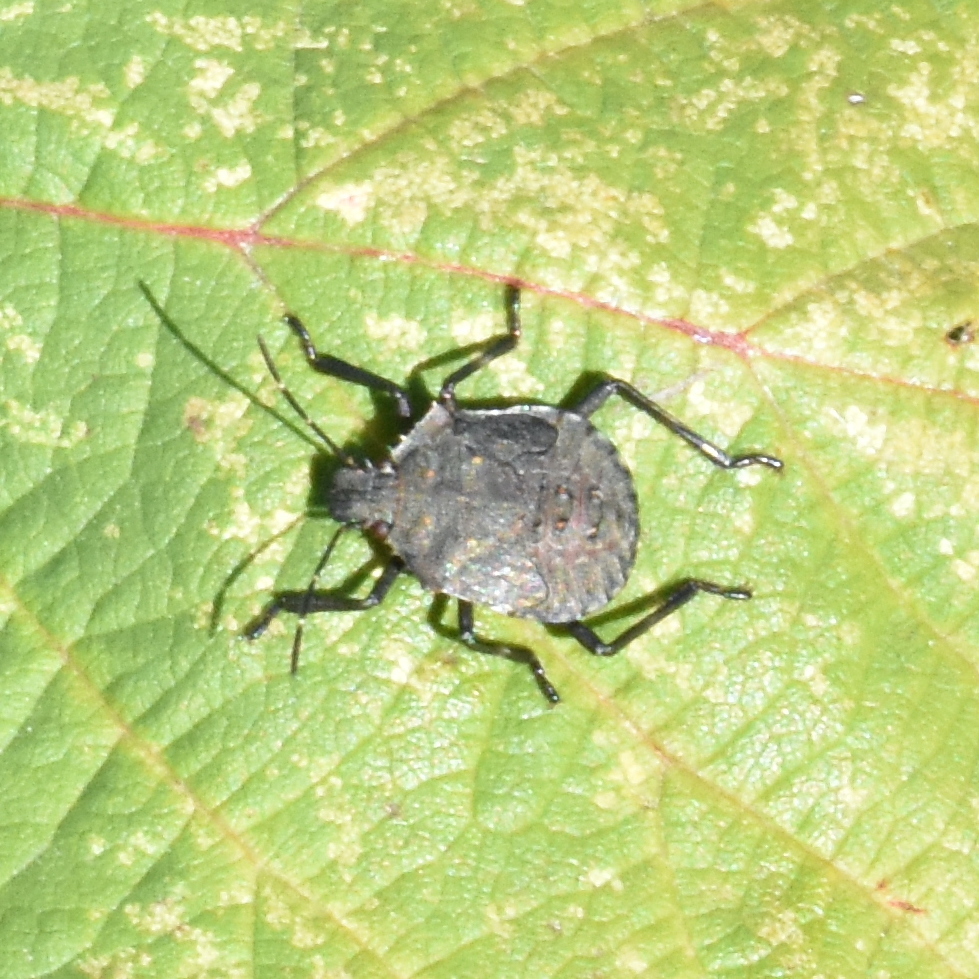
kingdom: Animalia
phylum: Arthropoda
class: Insecta
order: Hemiptera
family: Pentatomidae
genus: Halyomorpha
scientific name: Halyomorpha halys
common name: Brown marmorated stink bug
